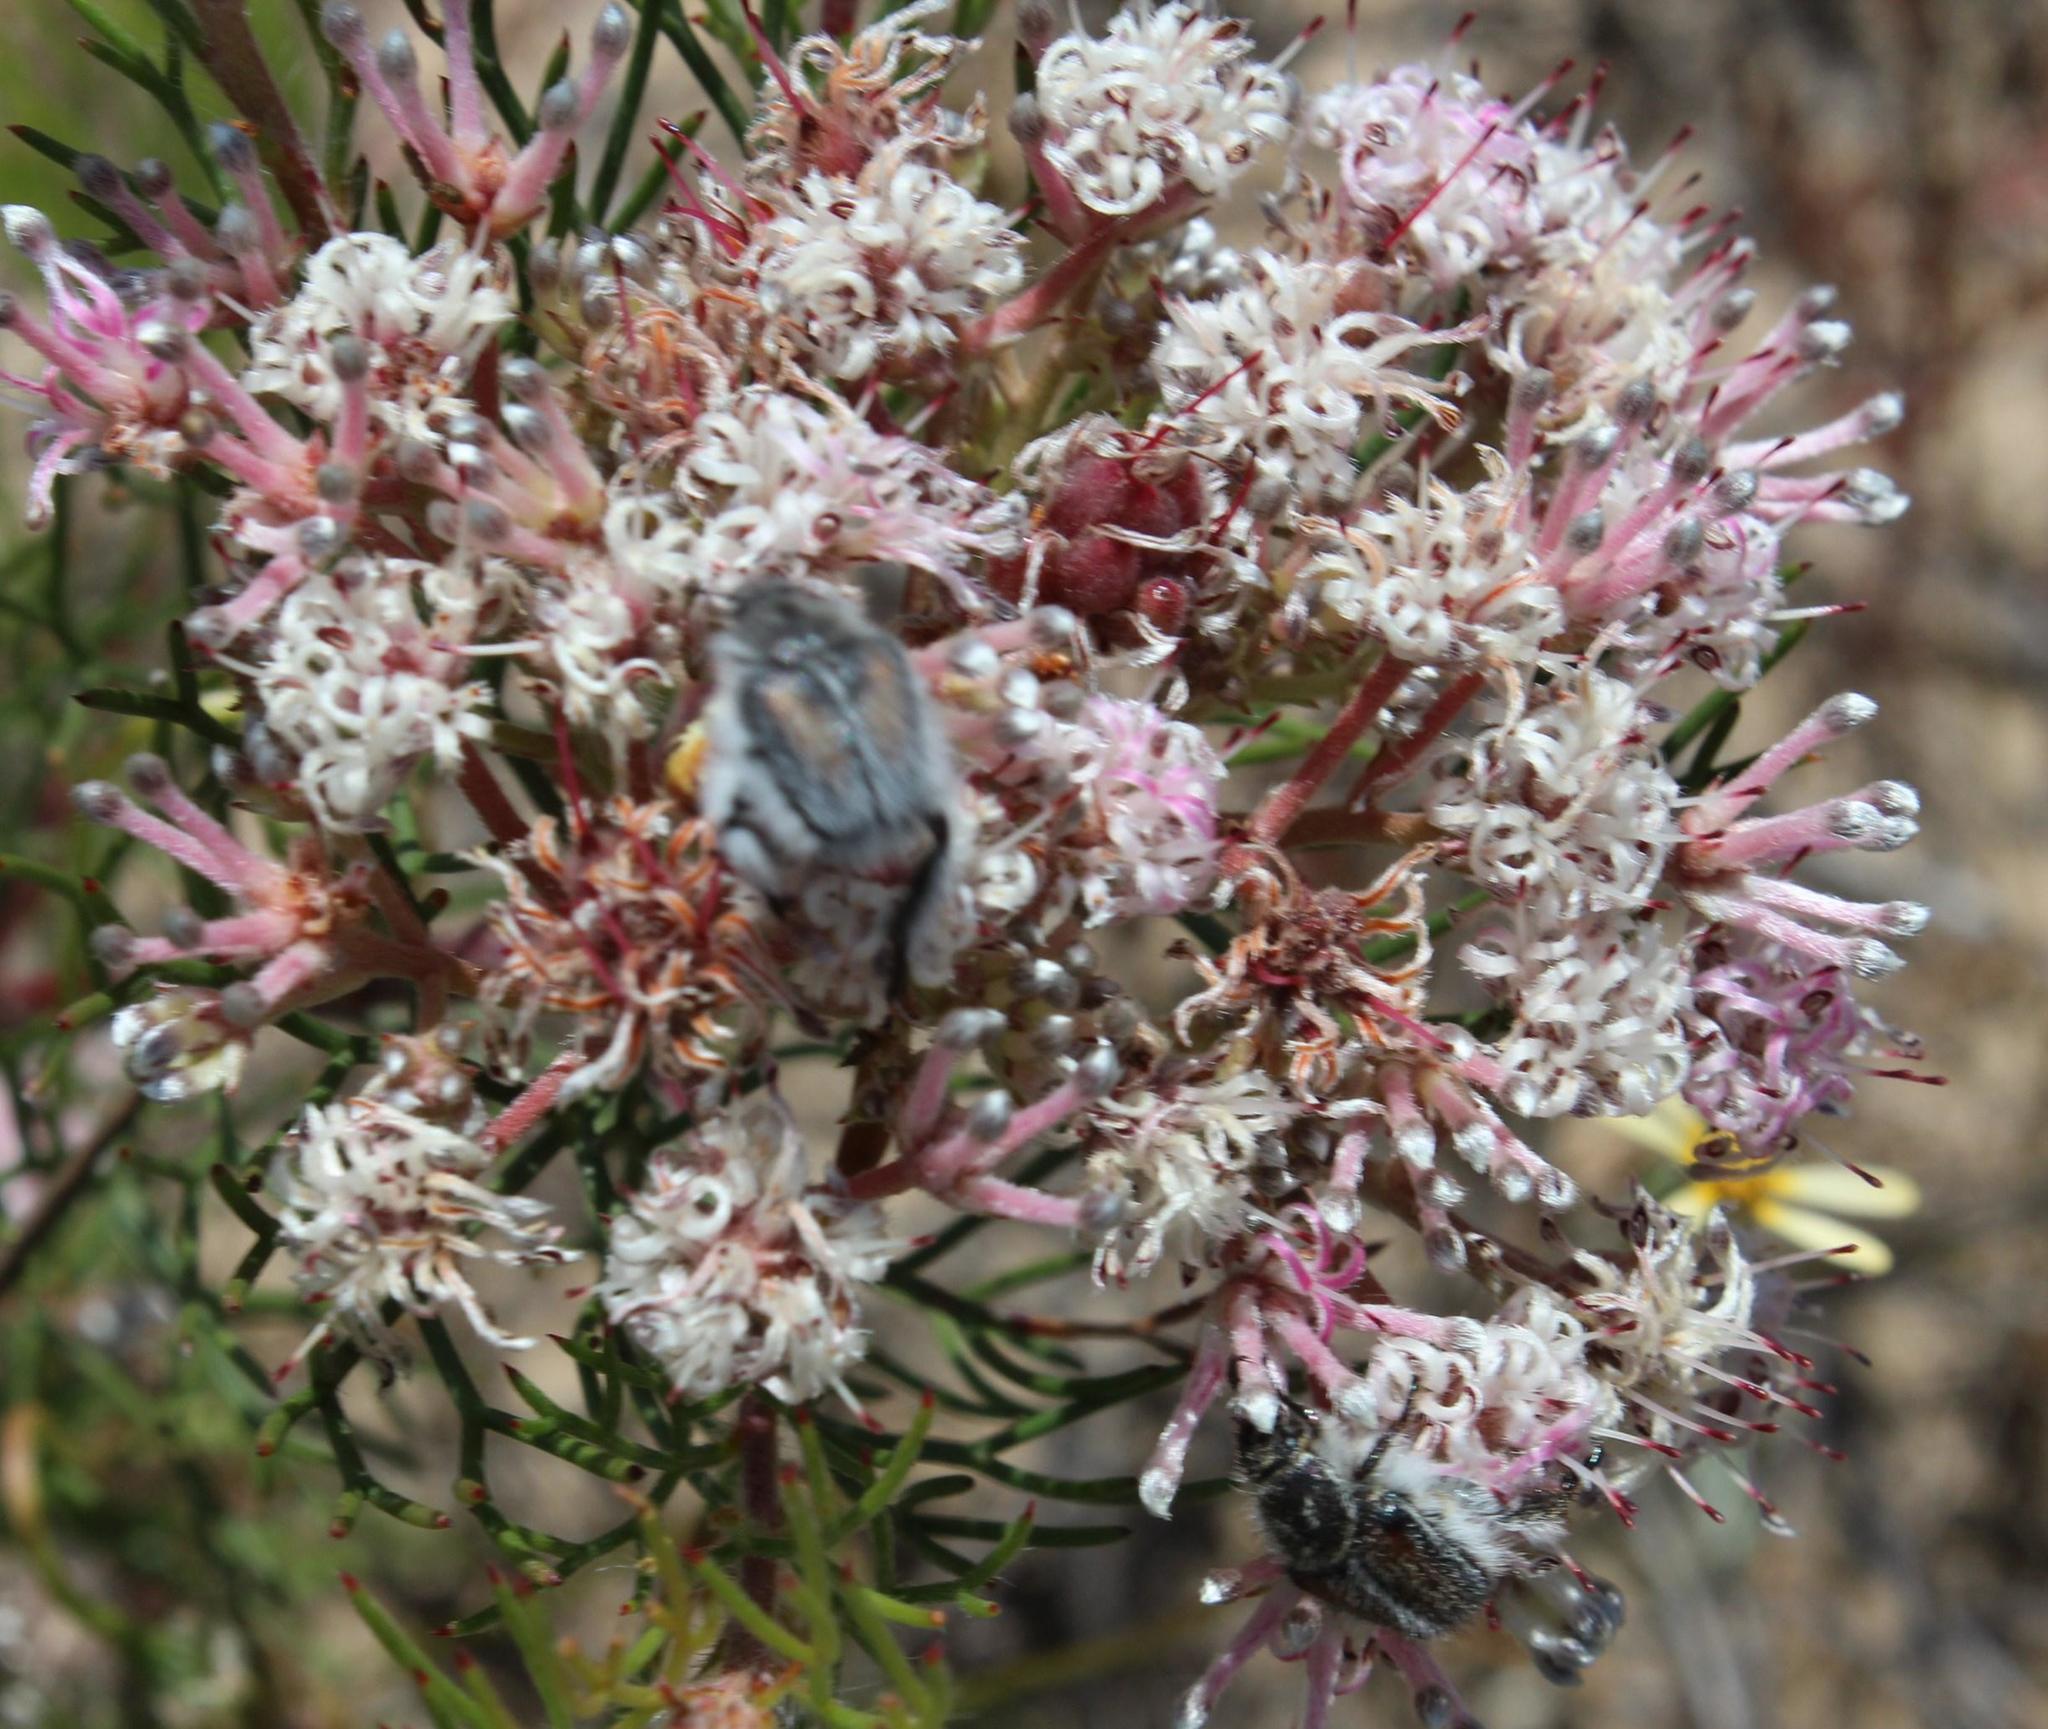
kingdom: Plantae
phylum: Tracheophyta
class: Magnoliopsida
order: Proteales
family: Proteaceae
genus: Serruria
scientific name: Serruria fasciflora
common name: Common pin spiderhead
